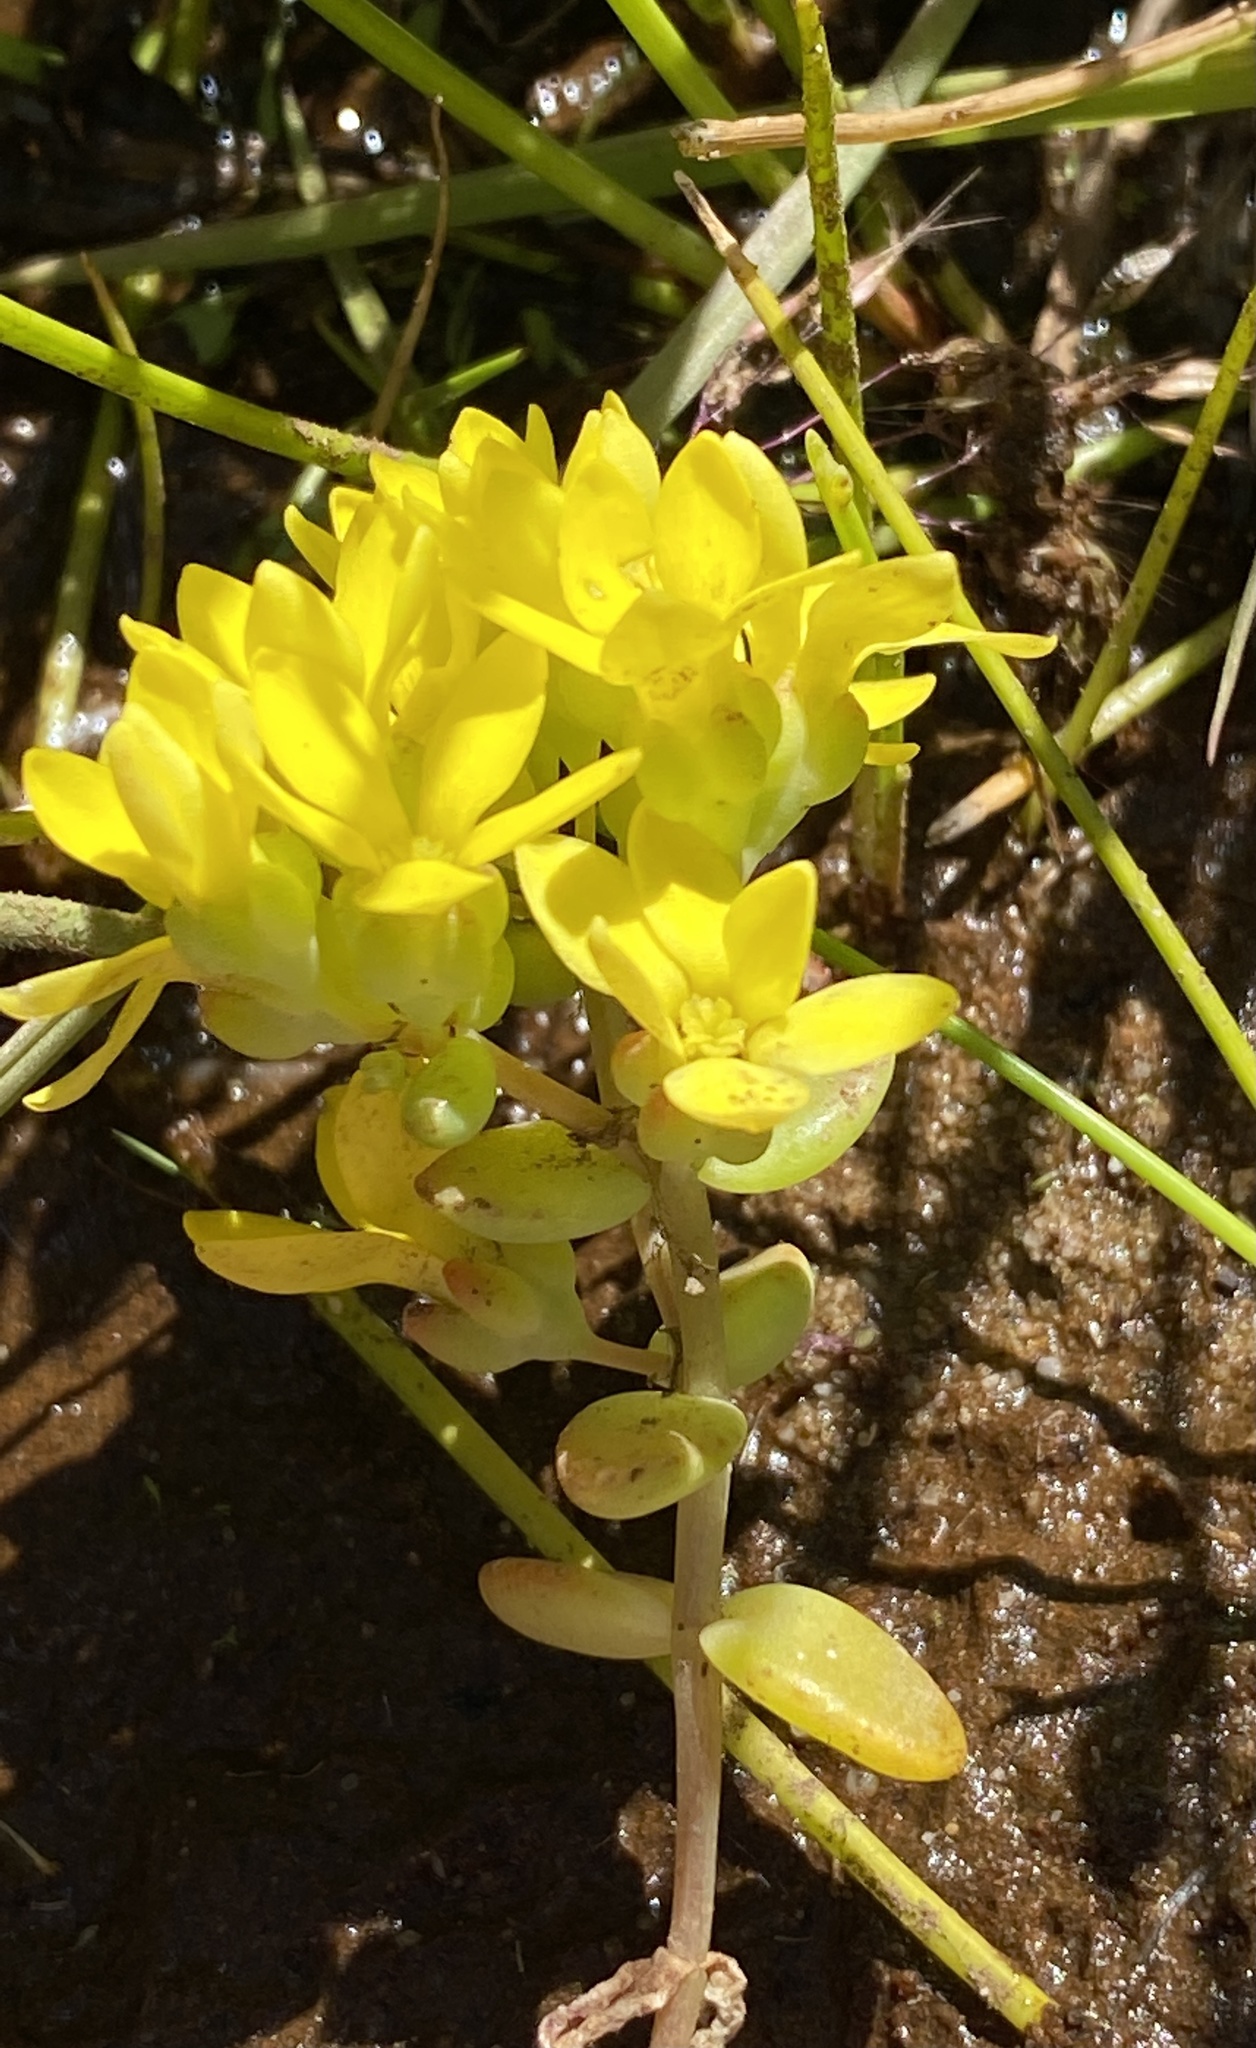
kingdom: Plantae
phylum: Tracheophyta
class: Magnoliopsida
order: Saxifragales
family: Crassulaceae
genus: Crassula
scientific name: Crassula sebaeoides
